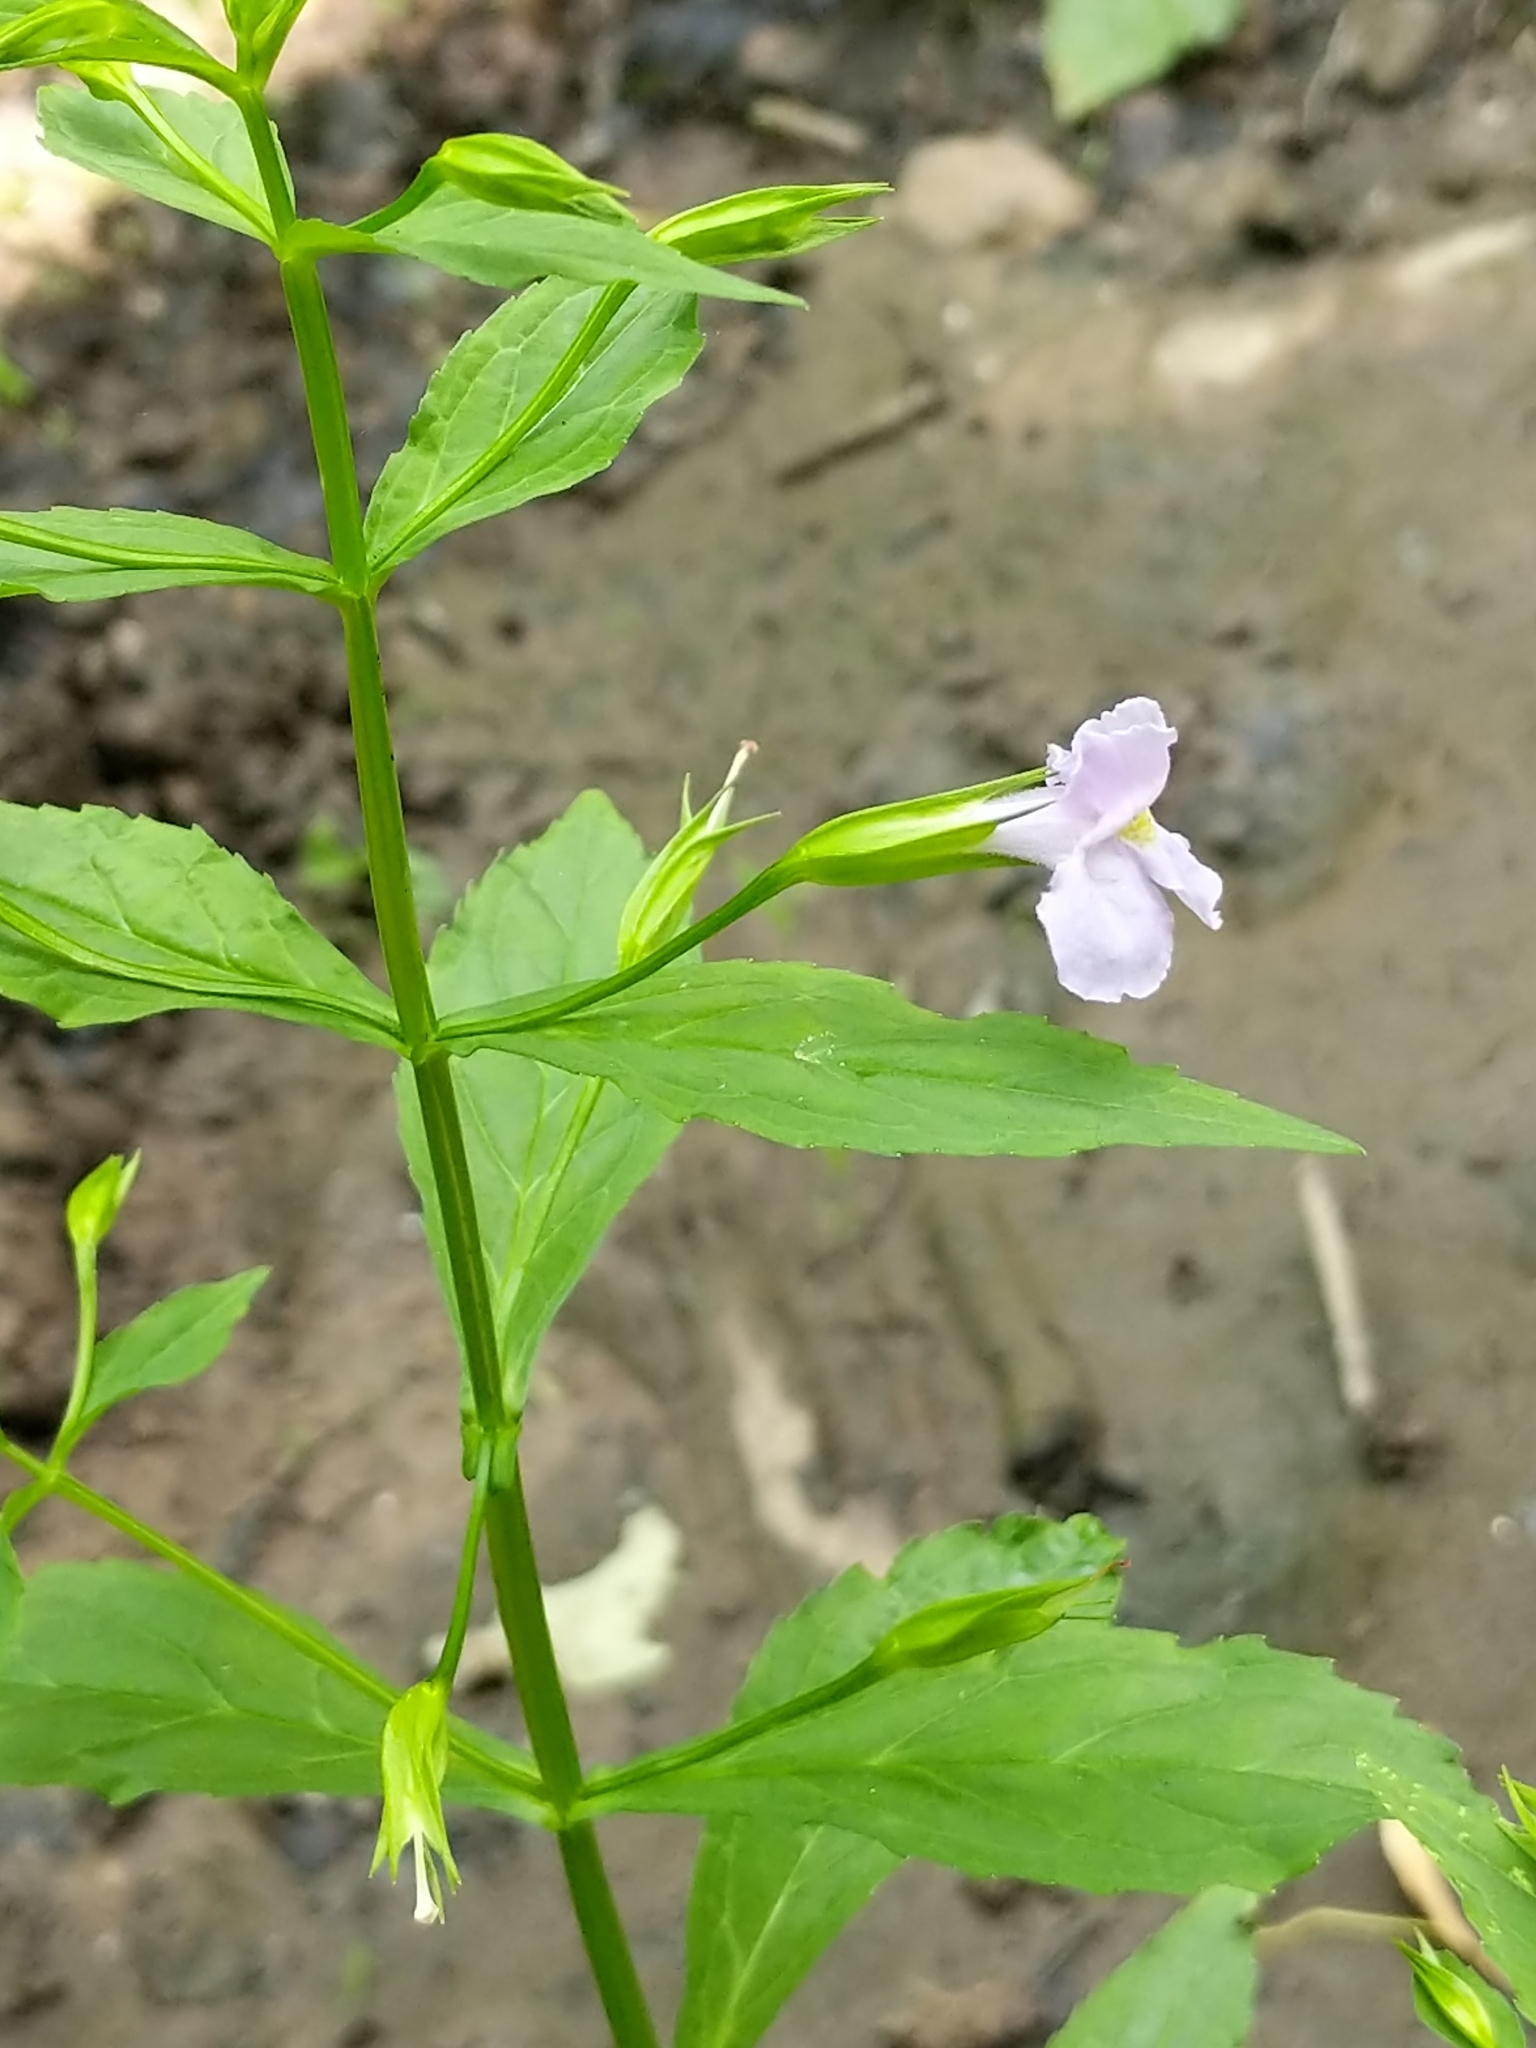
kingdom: Plantae
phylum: Tracheophyta
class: Magnoliopsida
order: Lamiales
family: Phrymaceae
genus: Mimulus
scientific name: Mimulus ringens
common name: Allegheny monkeyflower
